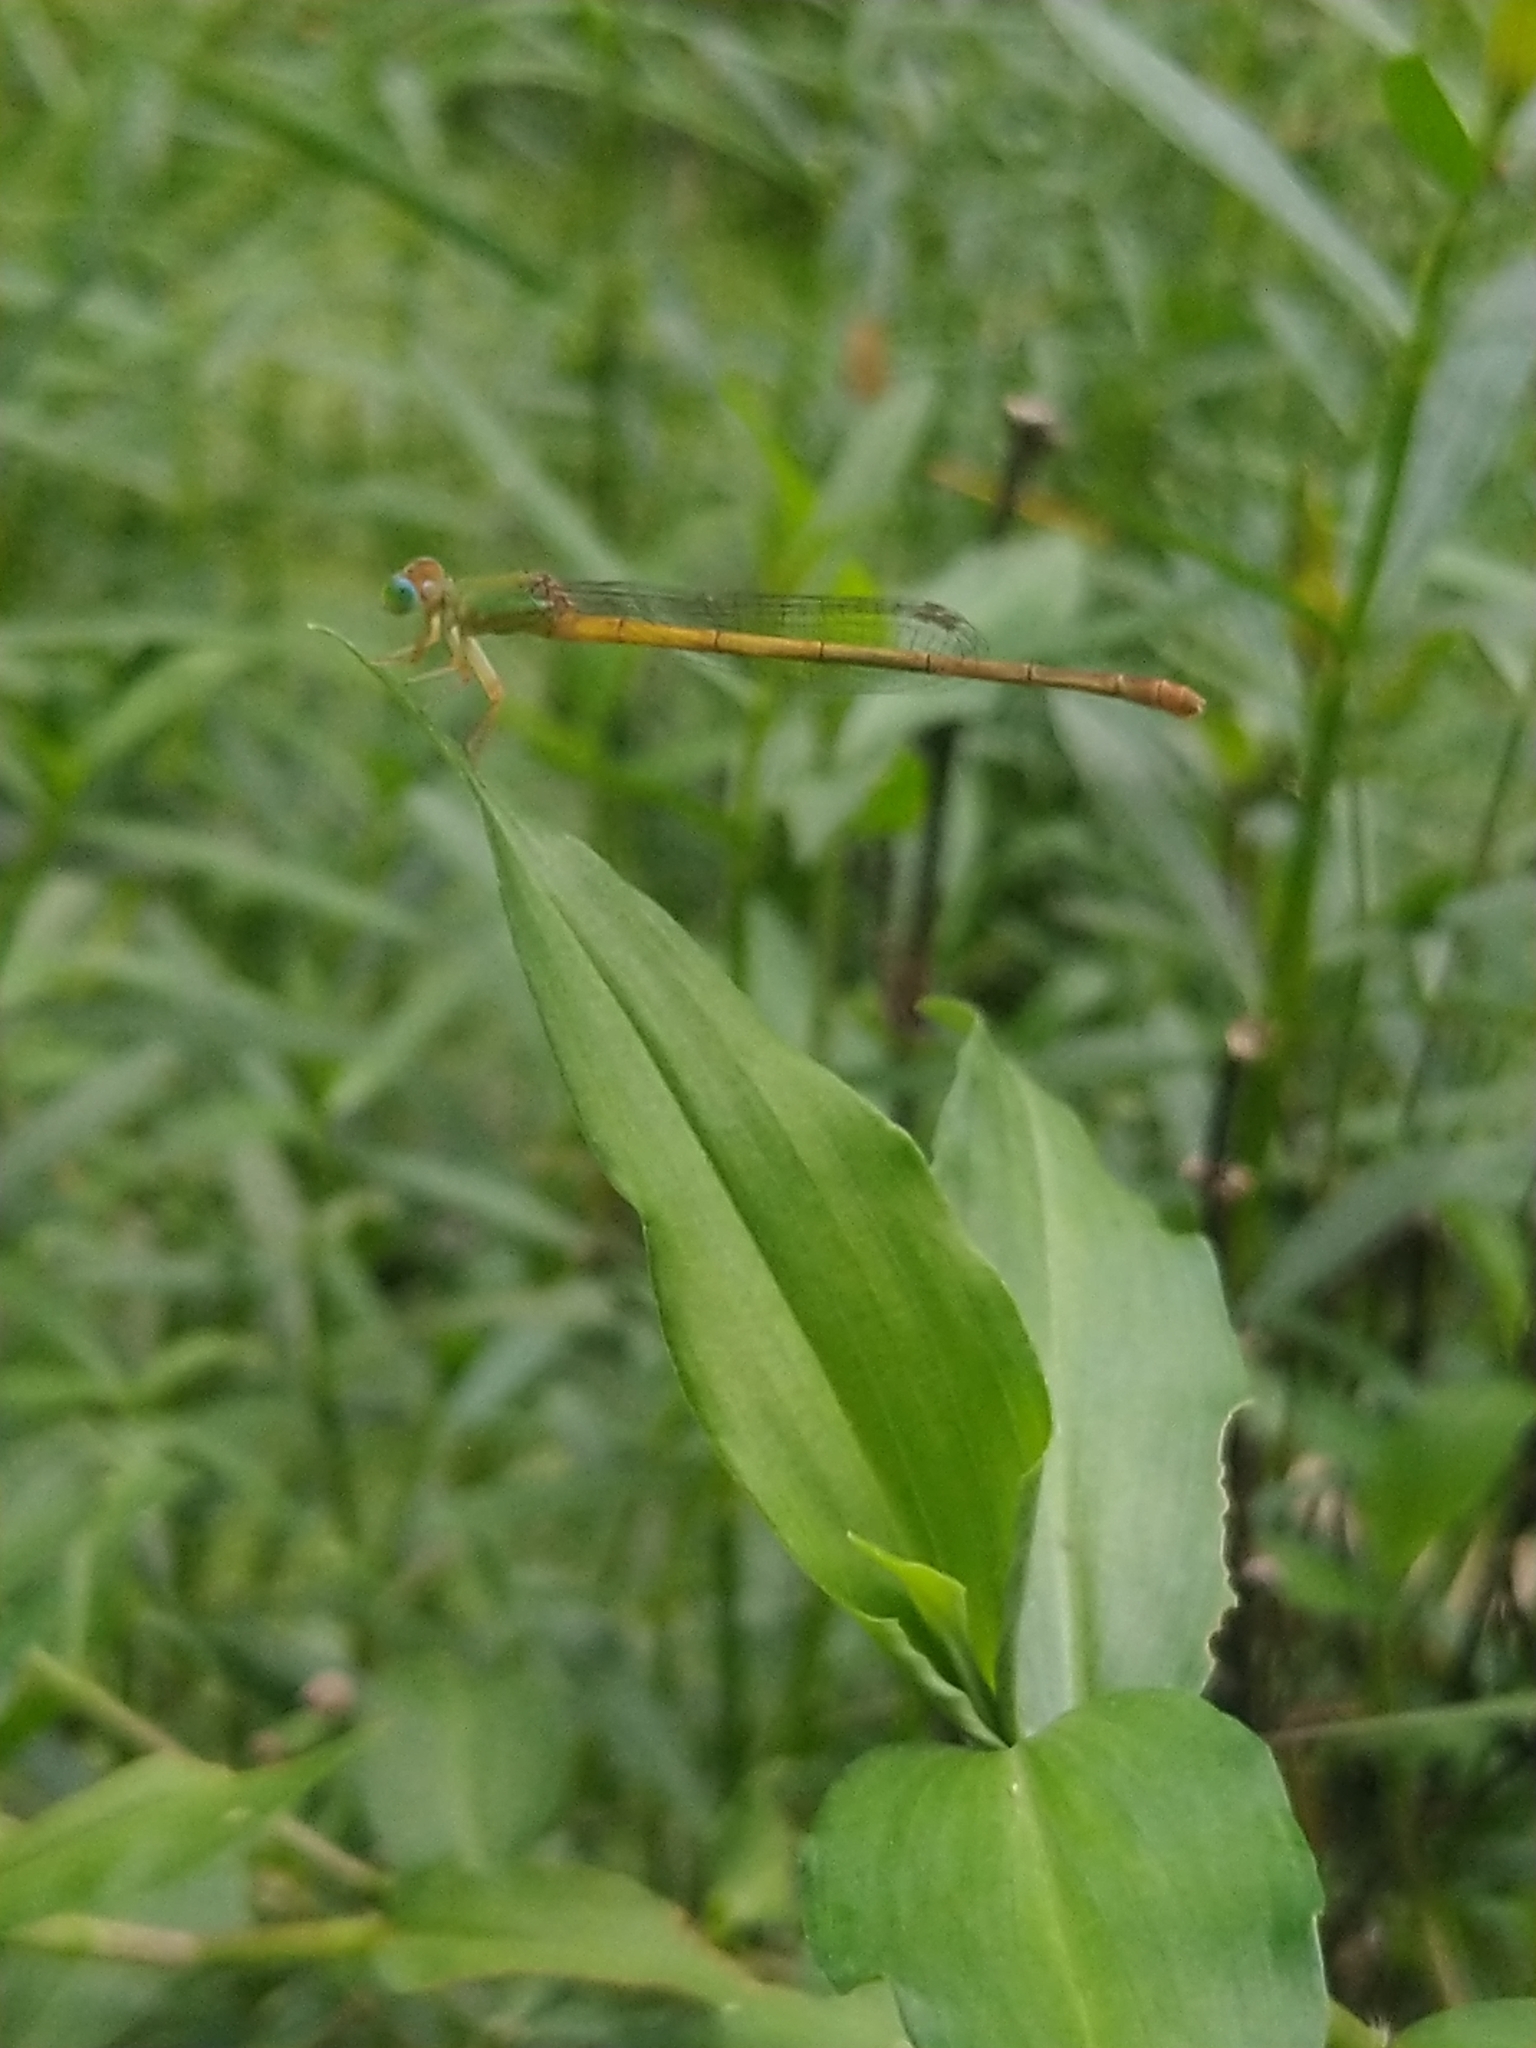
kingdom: Animalia
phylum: Arthropoda
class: Insecta
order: Odonata
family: Coenagrionidae
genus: Ceriagrion
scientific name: Ceriagrion coromandelianum
